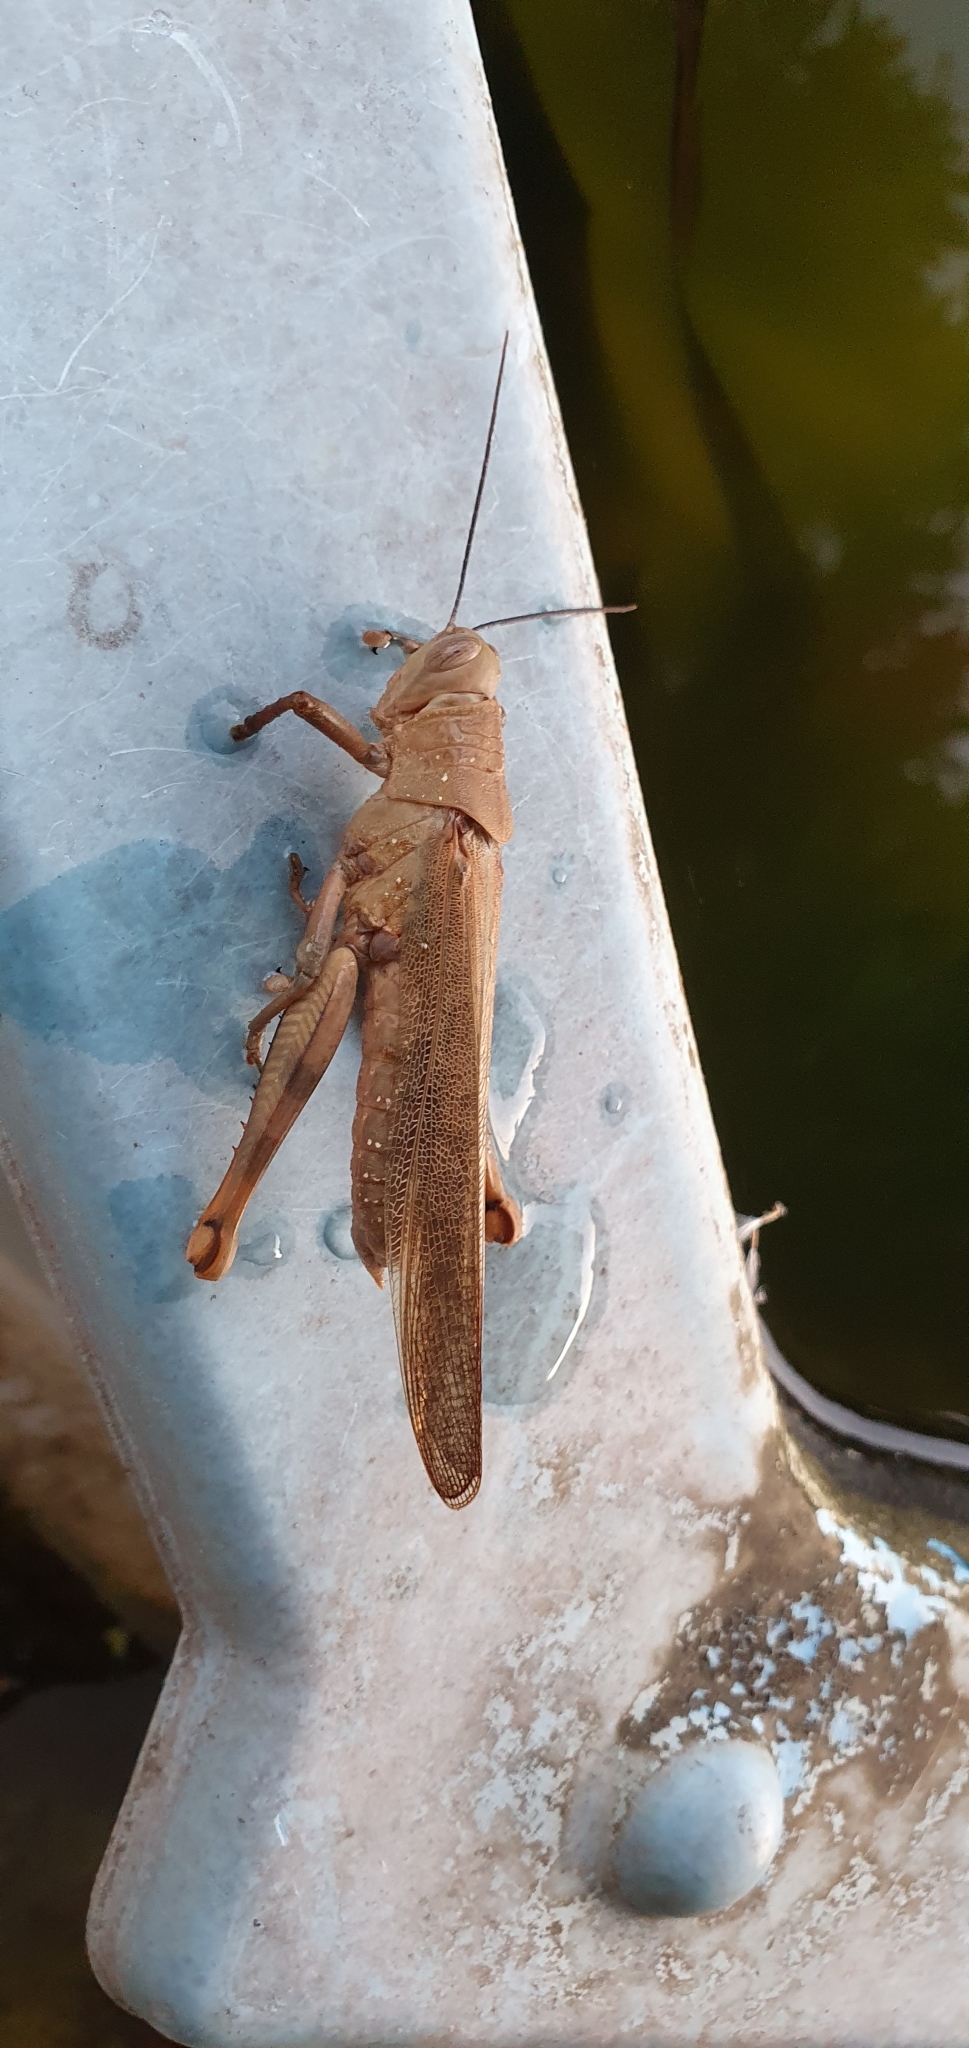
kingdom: Animalia
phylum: Arthropoda
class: Insecta
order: Orthoptera
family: Acrididae
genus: Valanga
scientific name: Valanga irregularis
